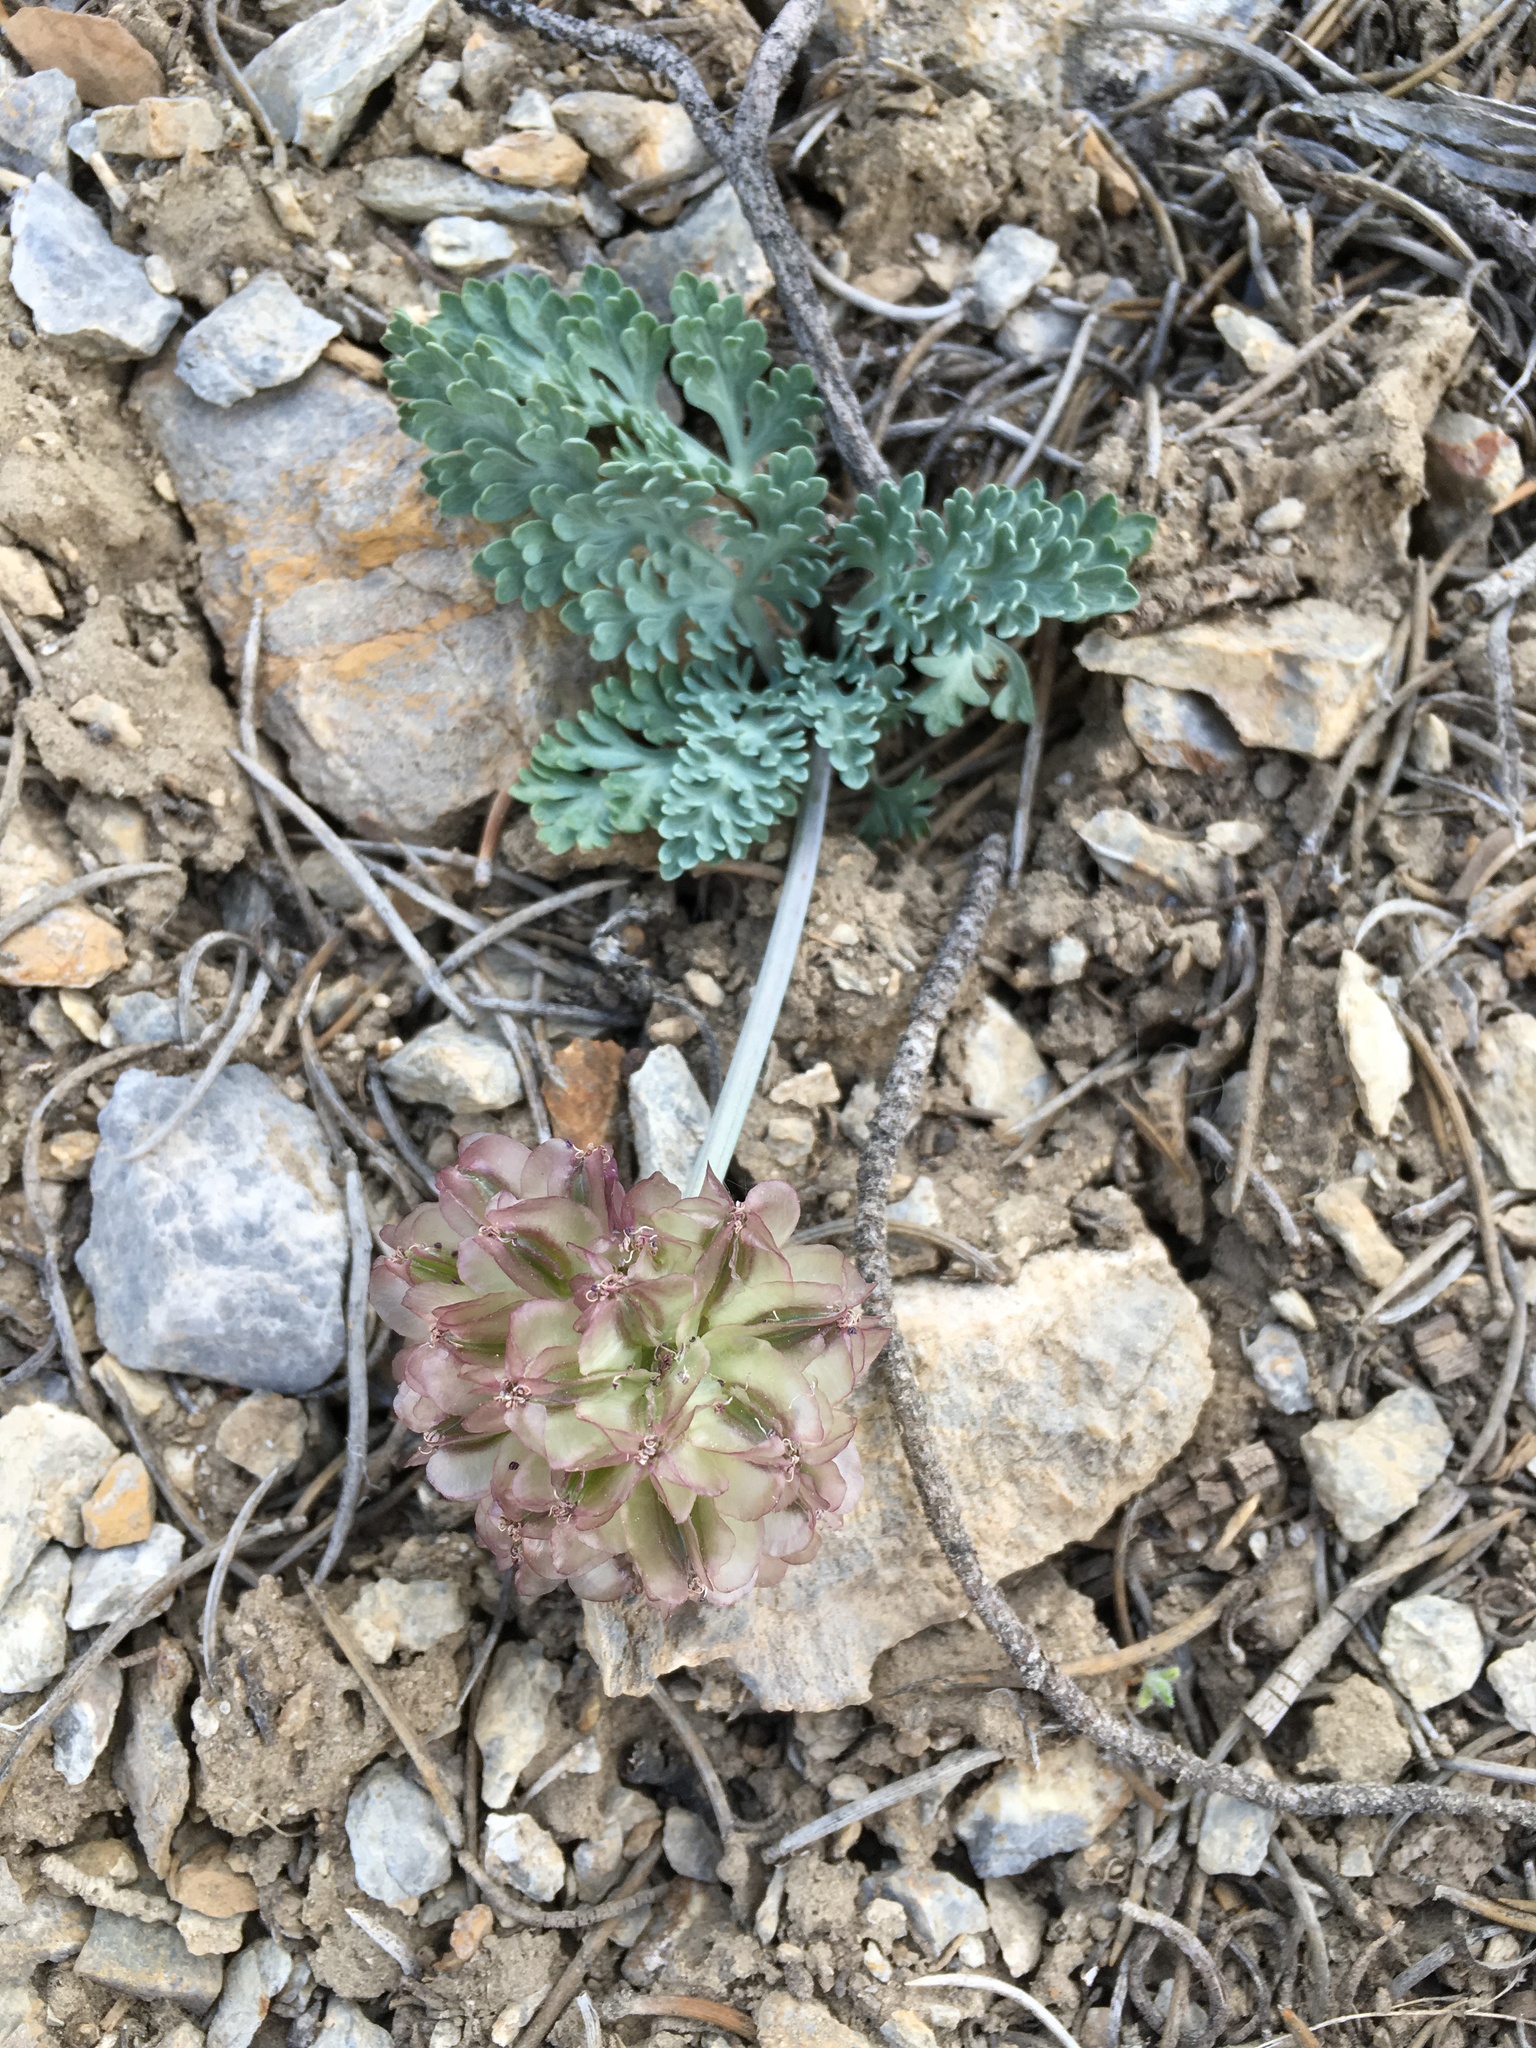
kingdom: Plantae
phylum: Tracheophyta
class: Magnoliopsida
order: Apiales
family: Apiaceae
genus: Vesper
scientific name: Vesper purpurascens
